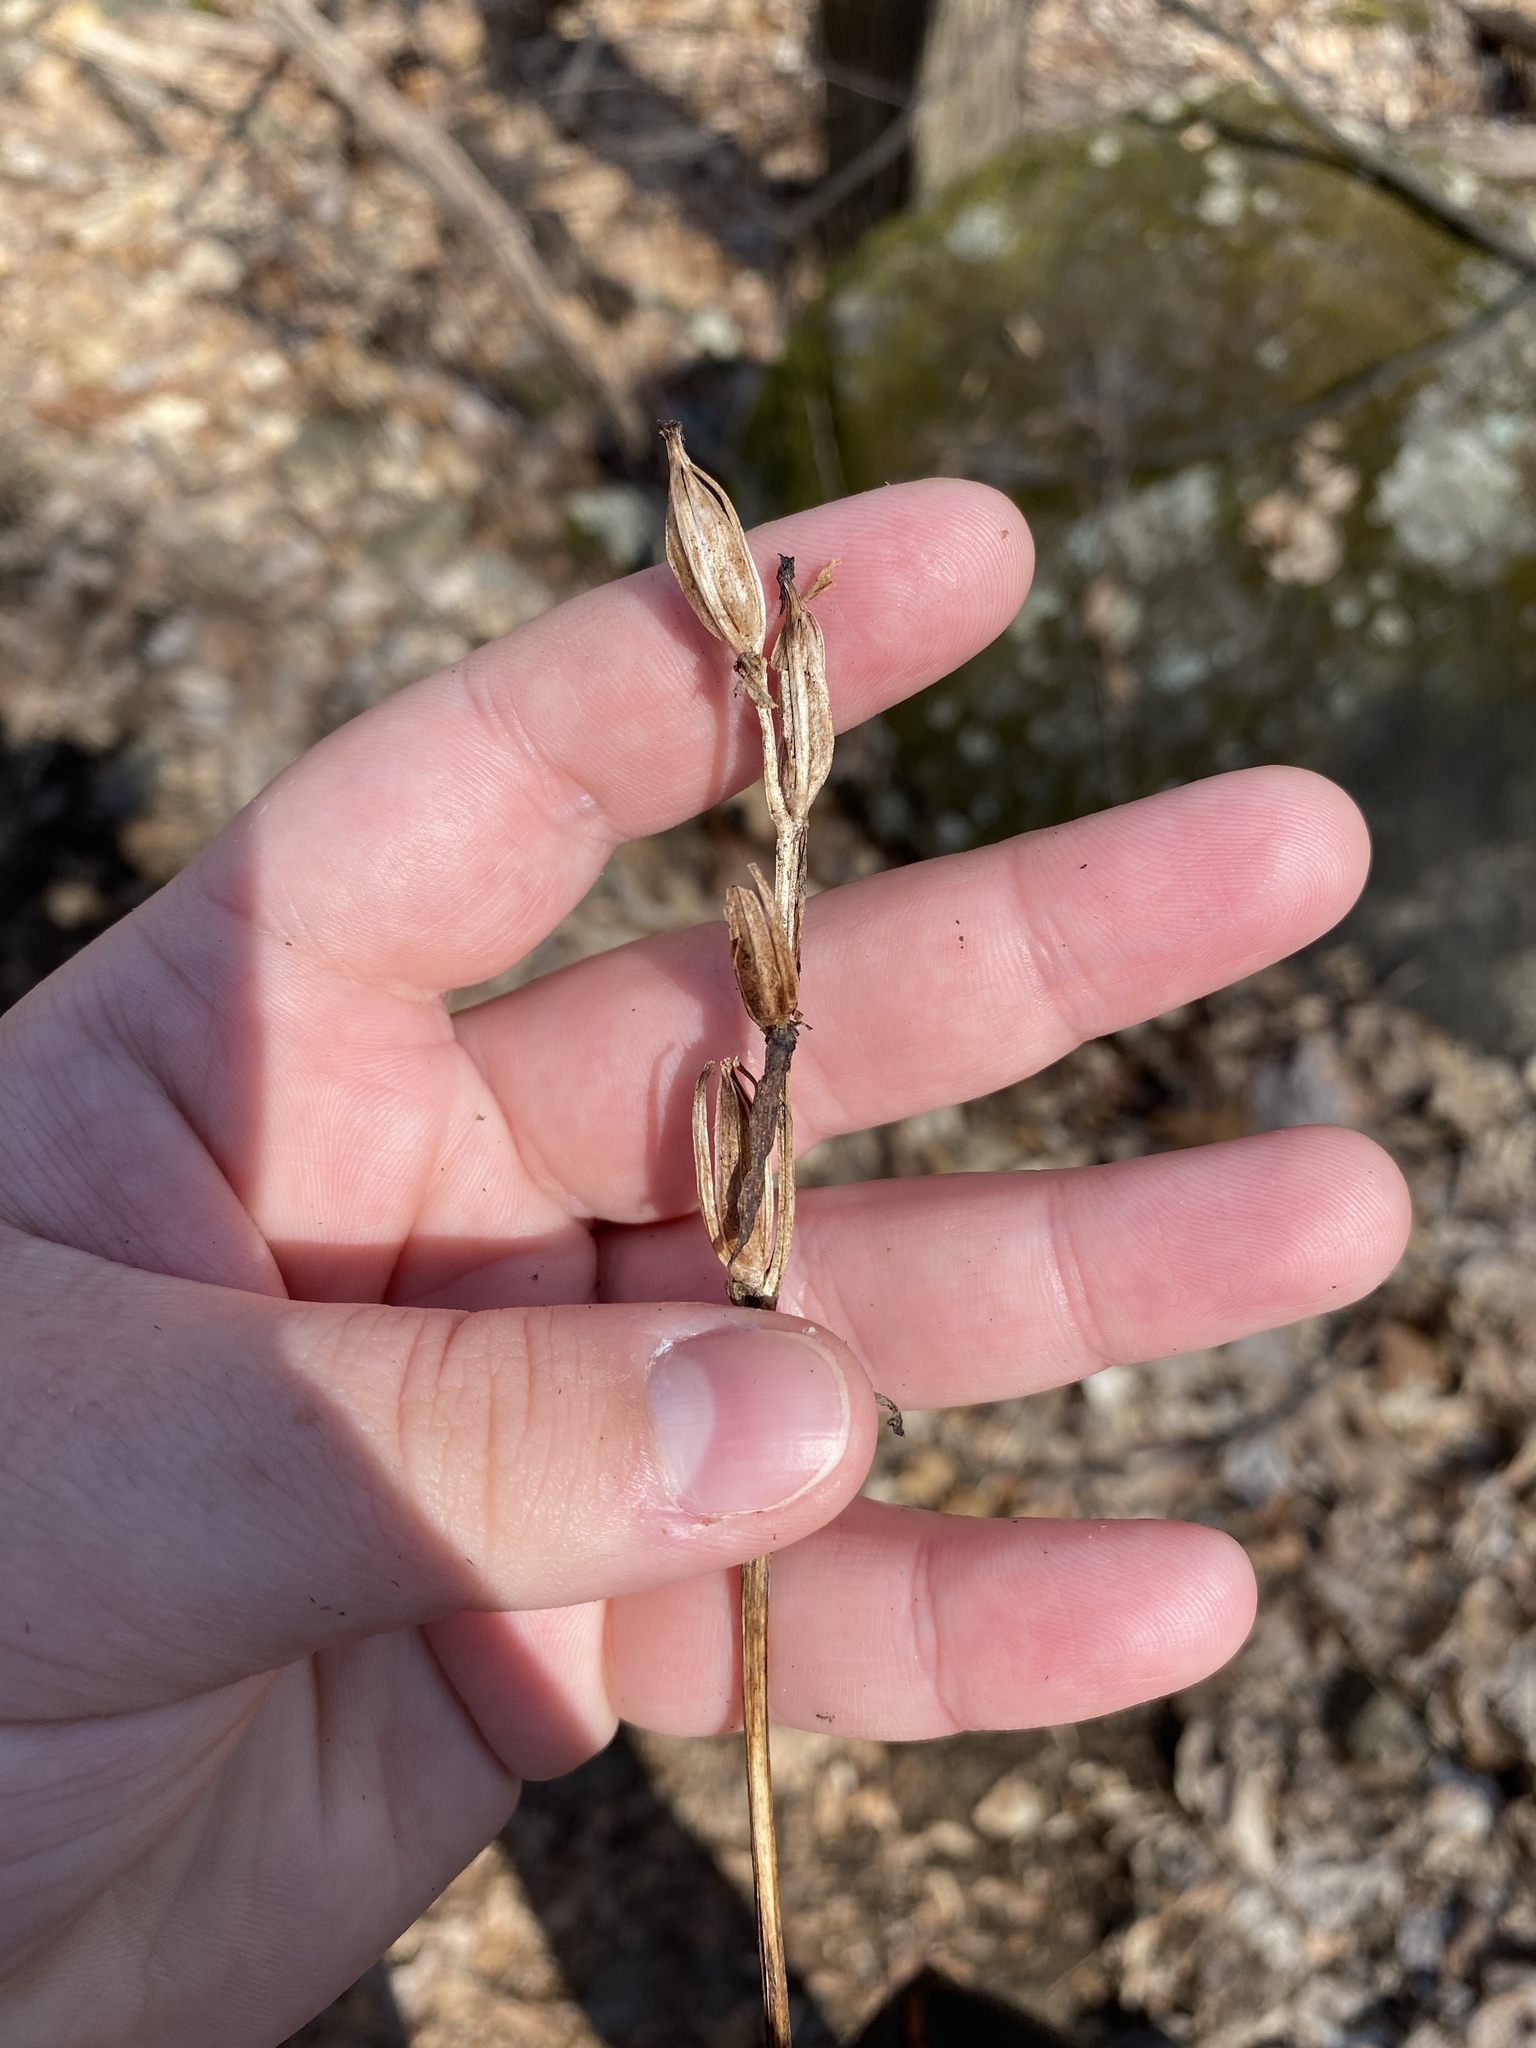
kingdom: Plantae
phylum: Tracheophyta
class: Liliopsida
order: Asparagales
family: Orchidaceae
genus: Galearis
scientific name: Galearis spectabilis
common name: Purple-hooded orchis
